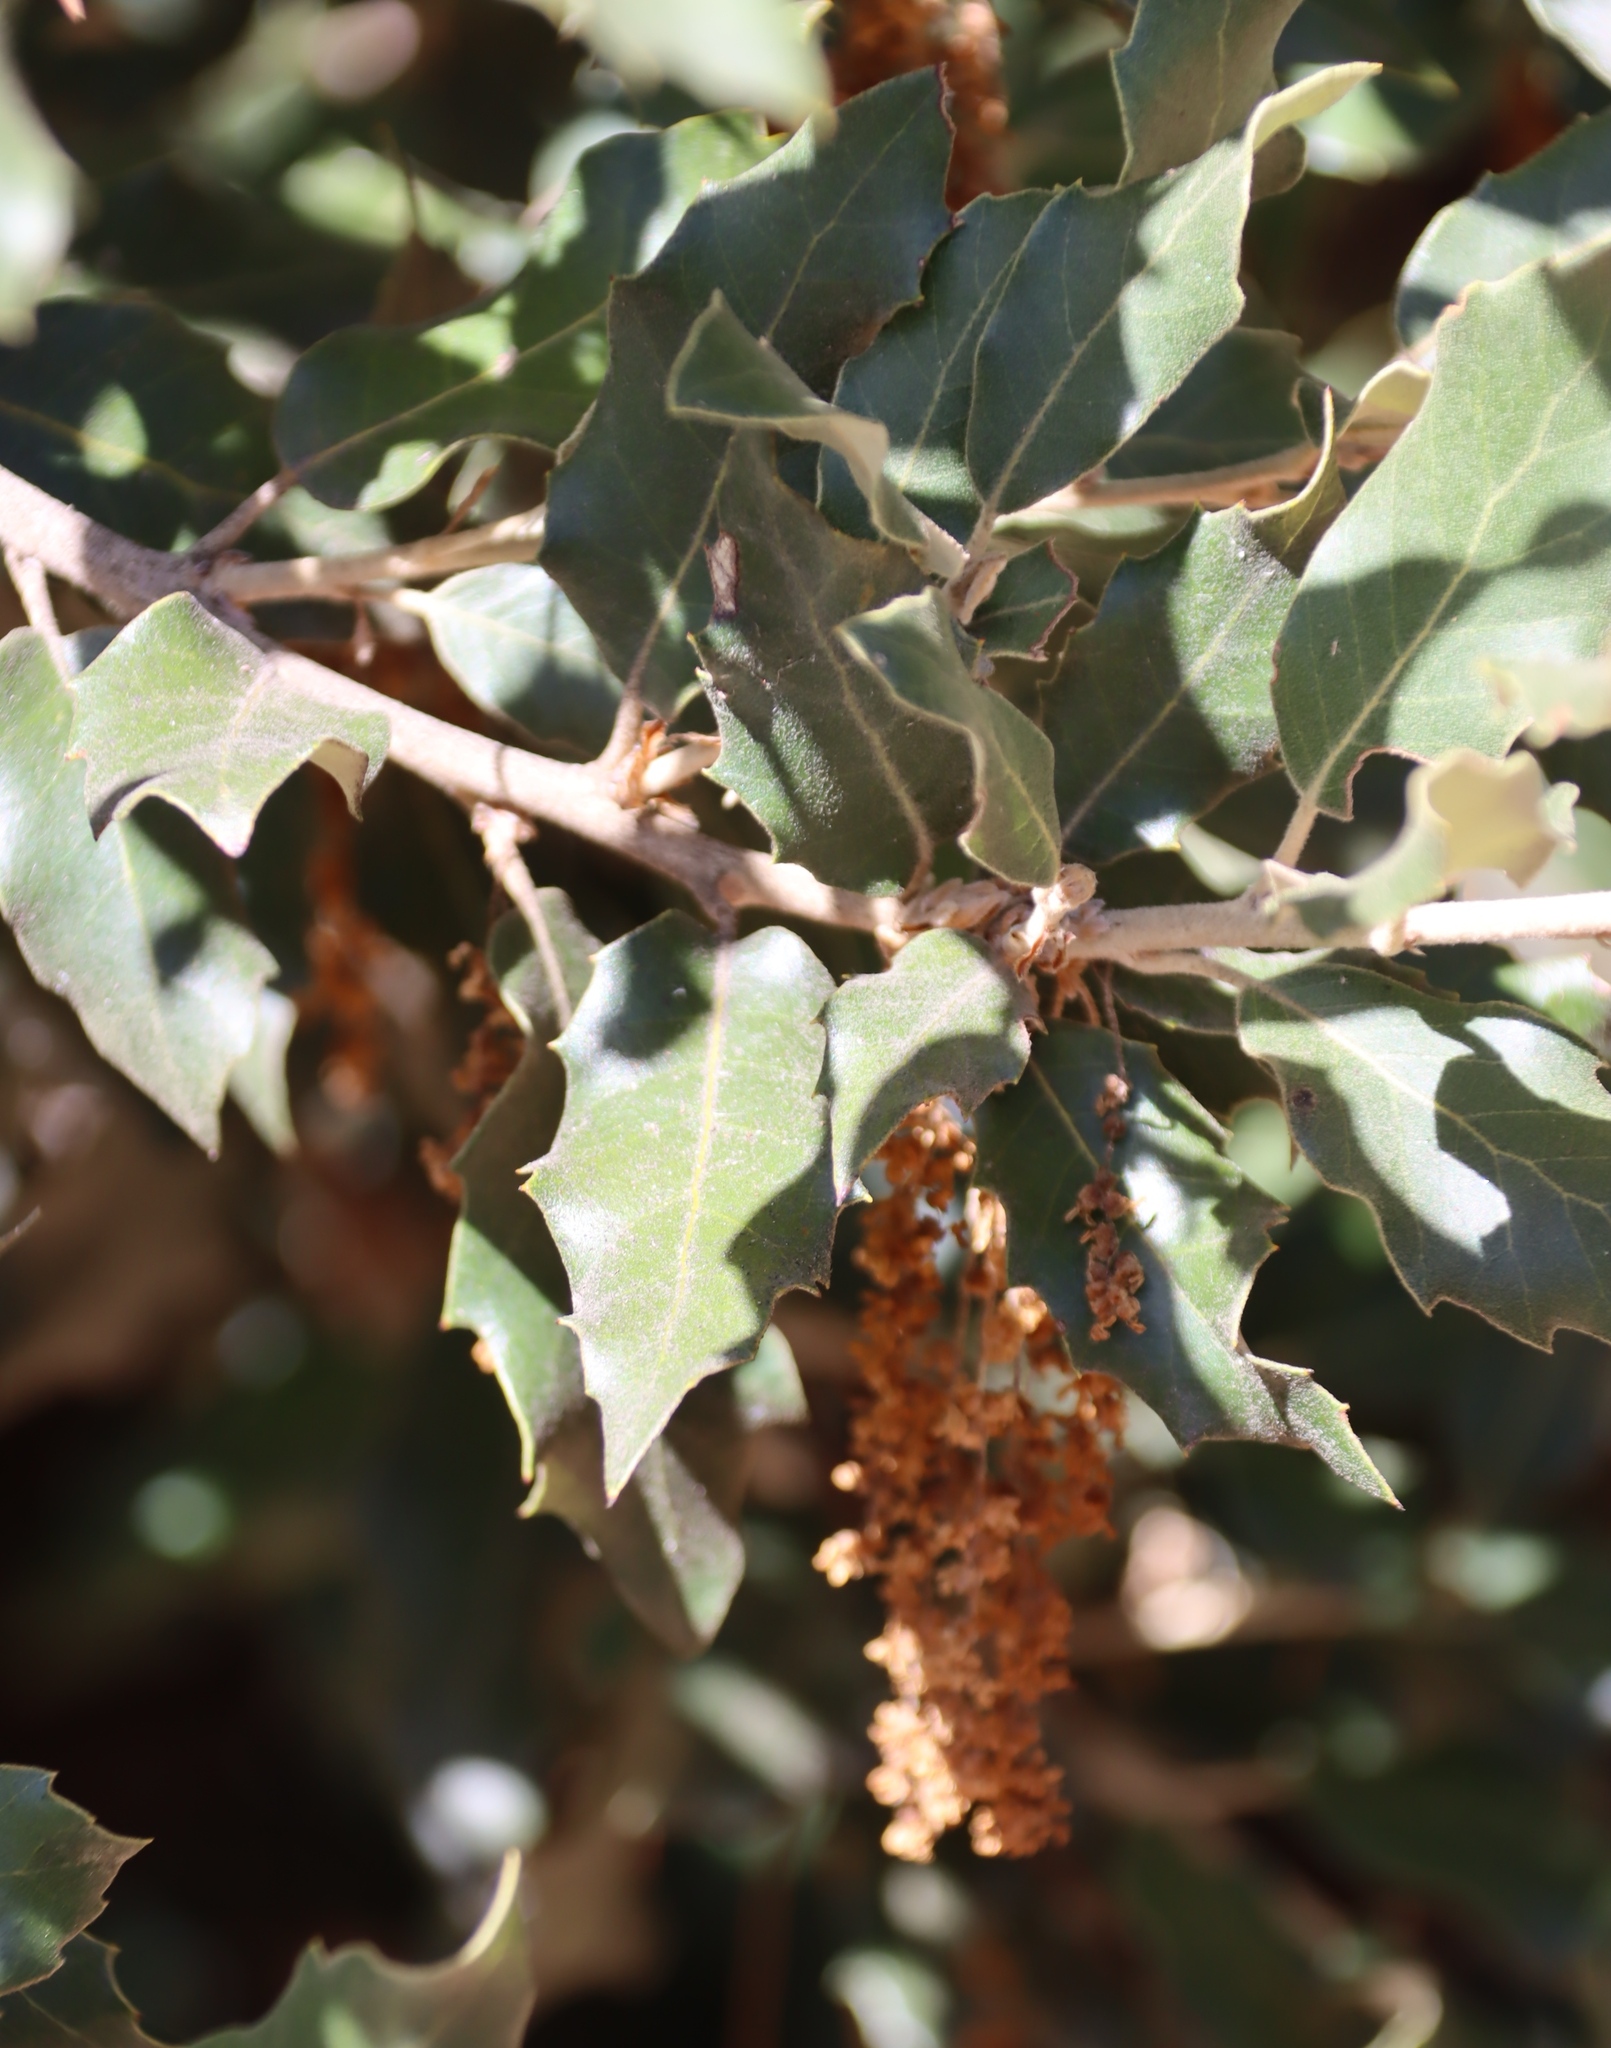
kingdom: Plantae
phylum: Tracheophyta
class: Magnoliopsida
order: Fagales
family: Fagaceae
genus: Quercus
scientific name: Quercus ilex
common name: Evergreen oak
